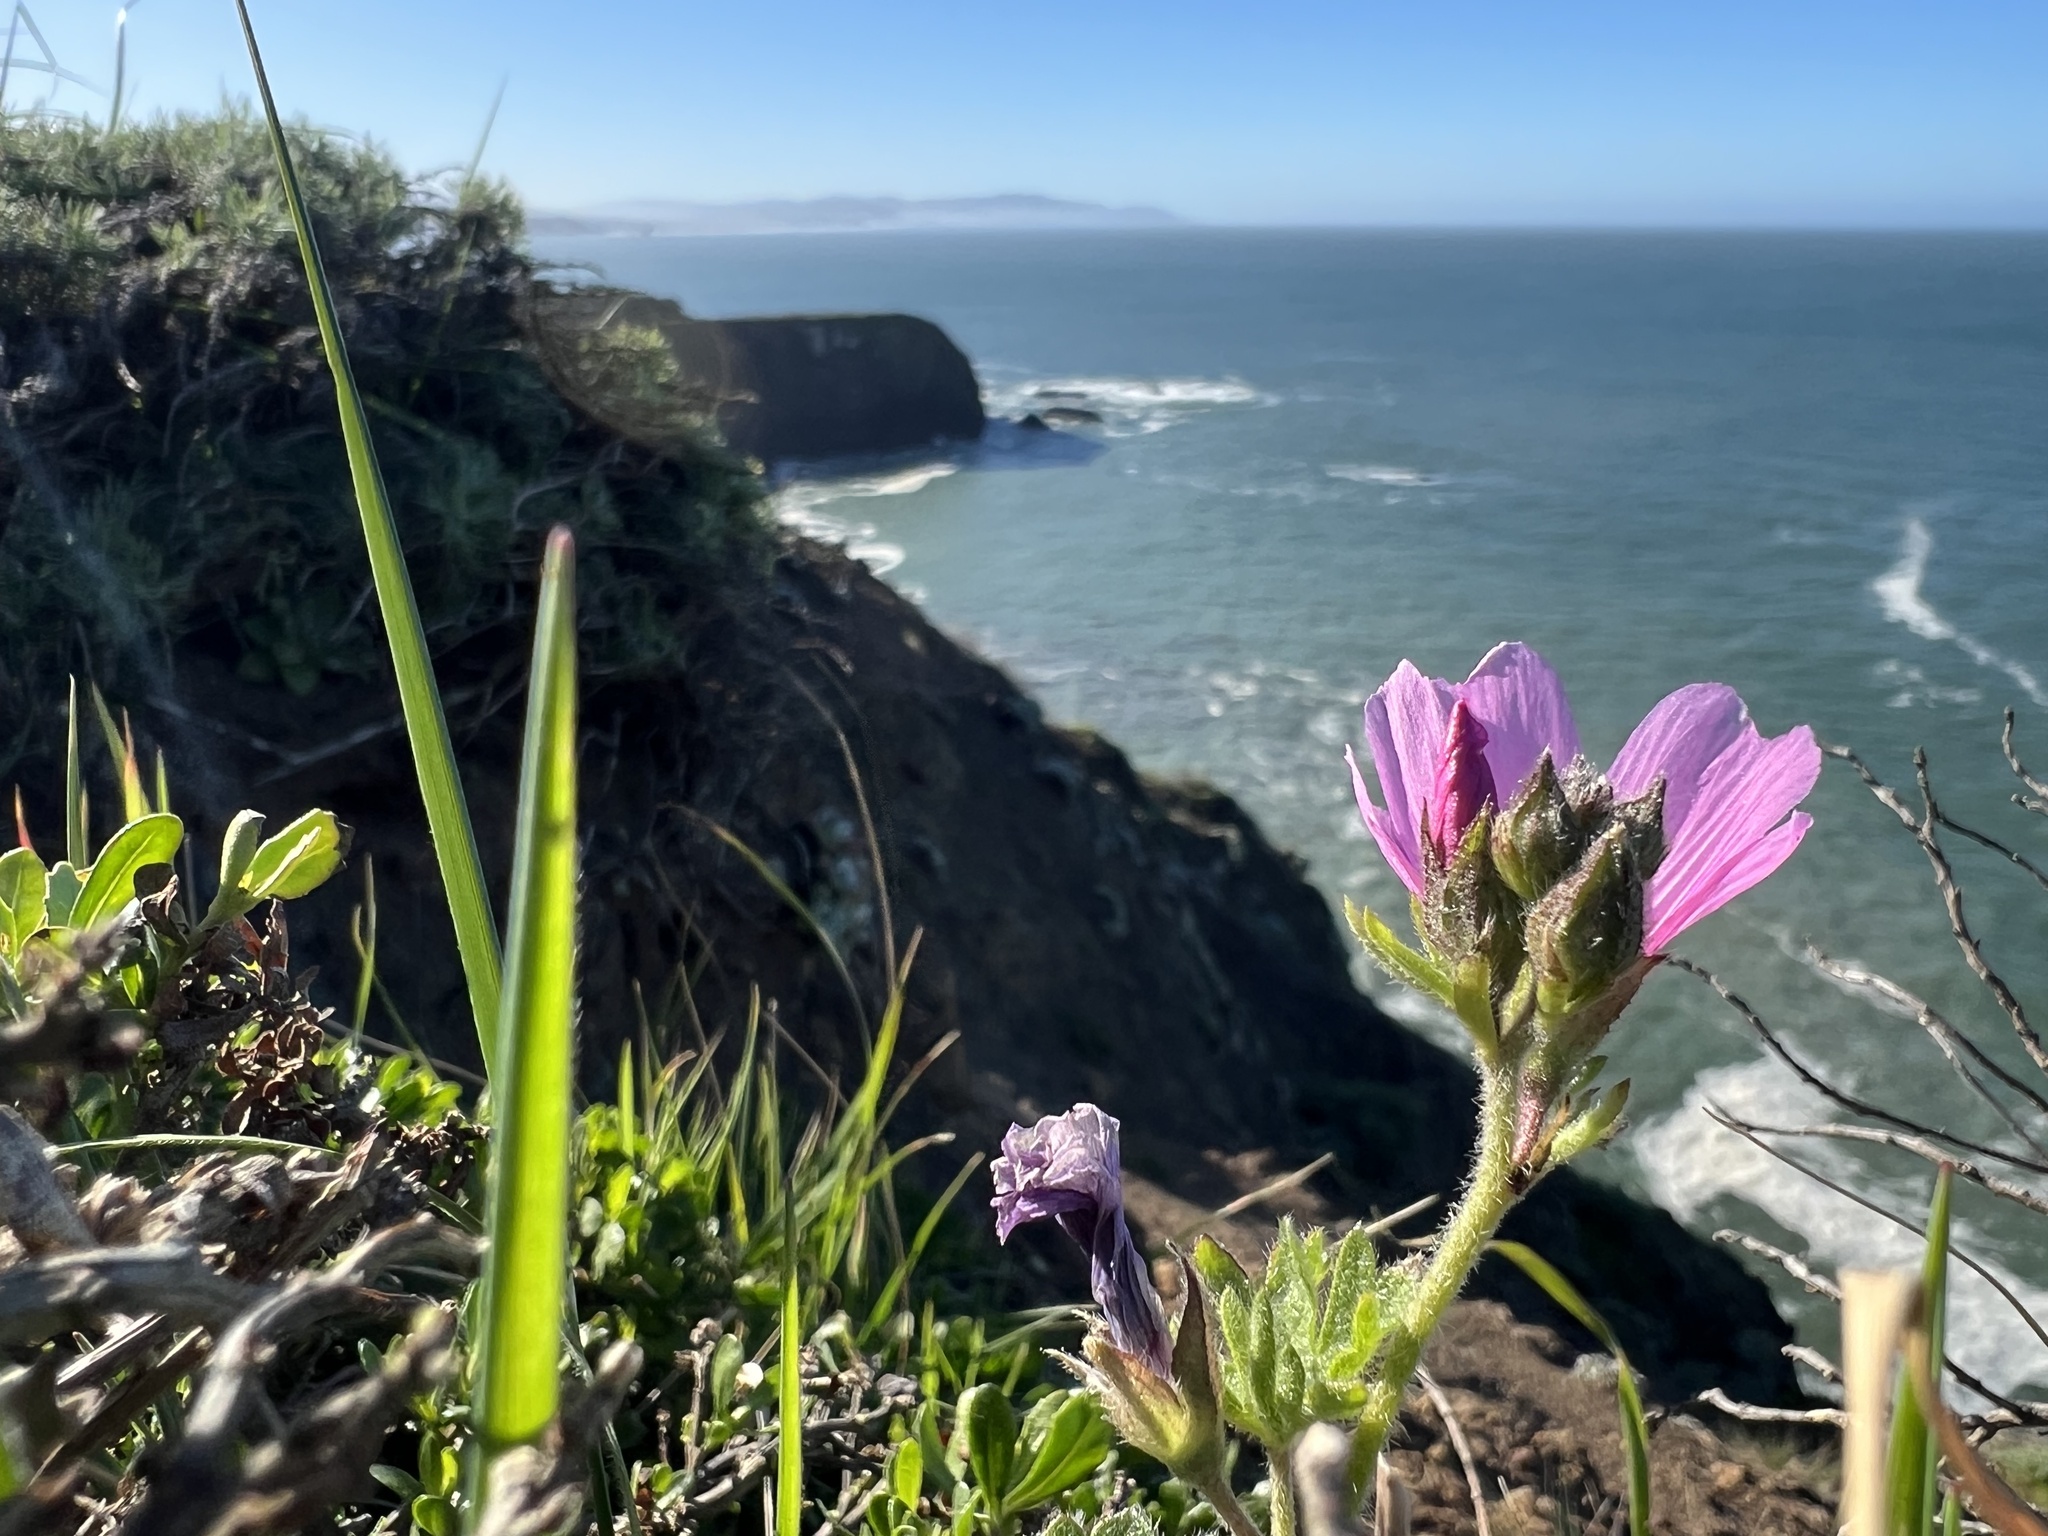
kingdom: Plantae
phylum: Tracheophyta
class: Magnoliopsida
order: Malvales
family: Malvaceae
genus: Sidalcea
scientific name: Sidalcea malviflora
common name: Greek mallow
